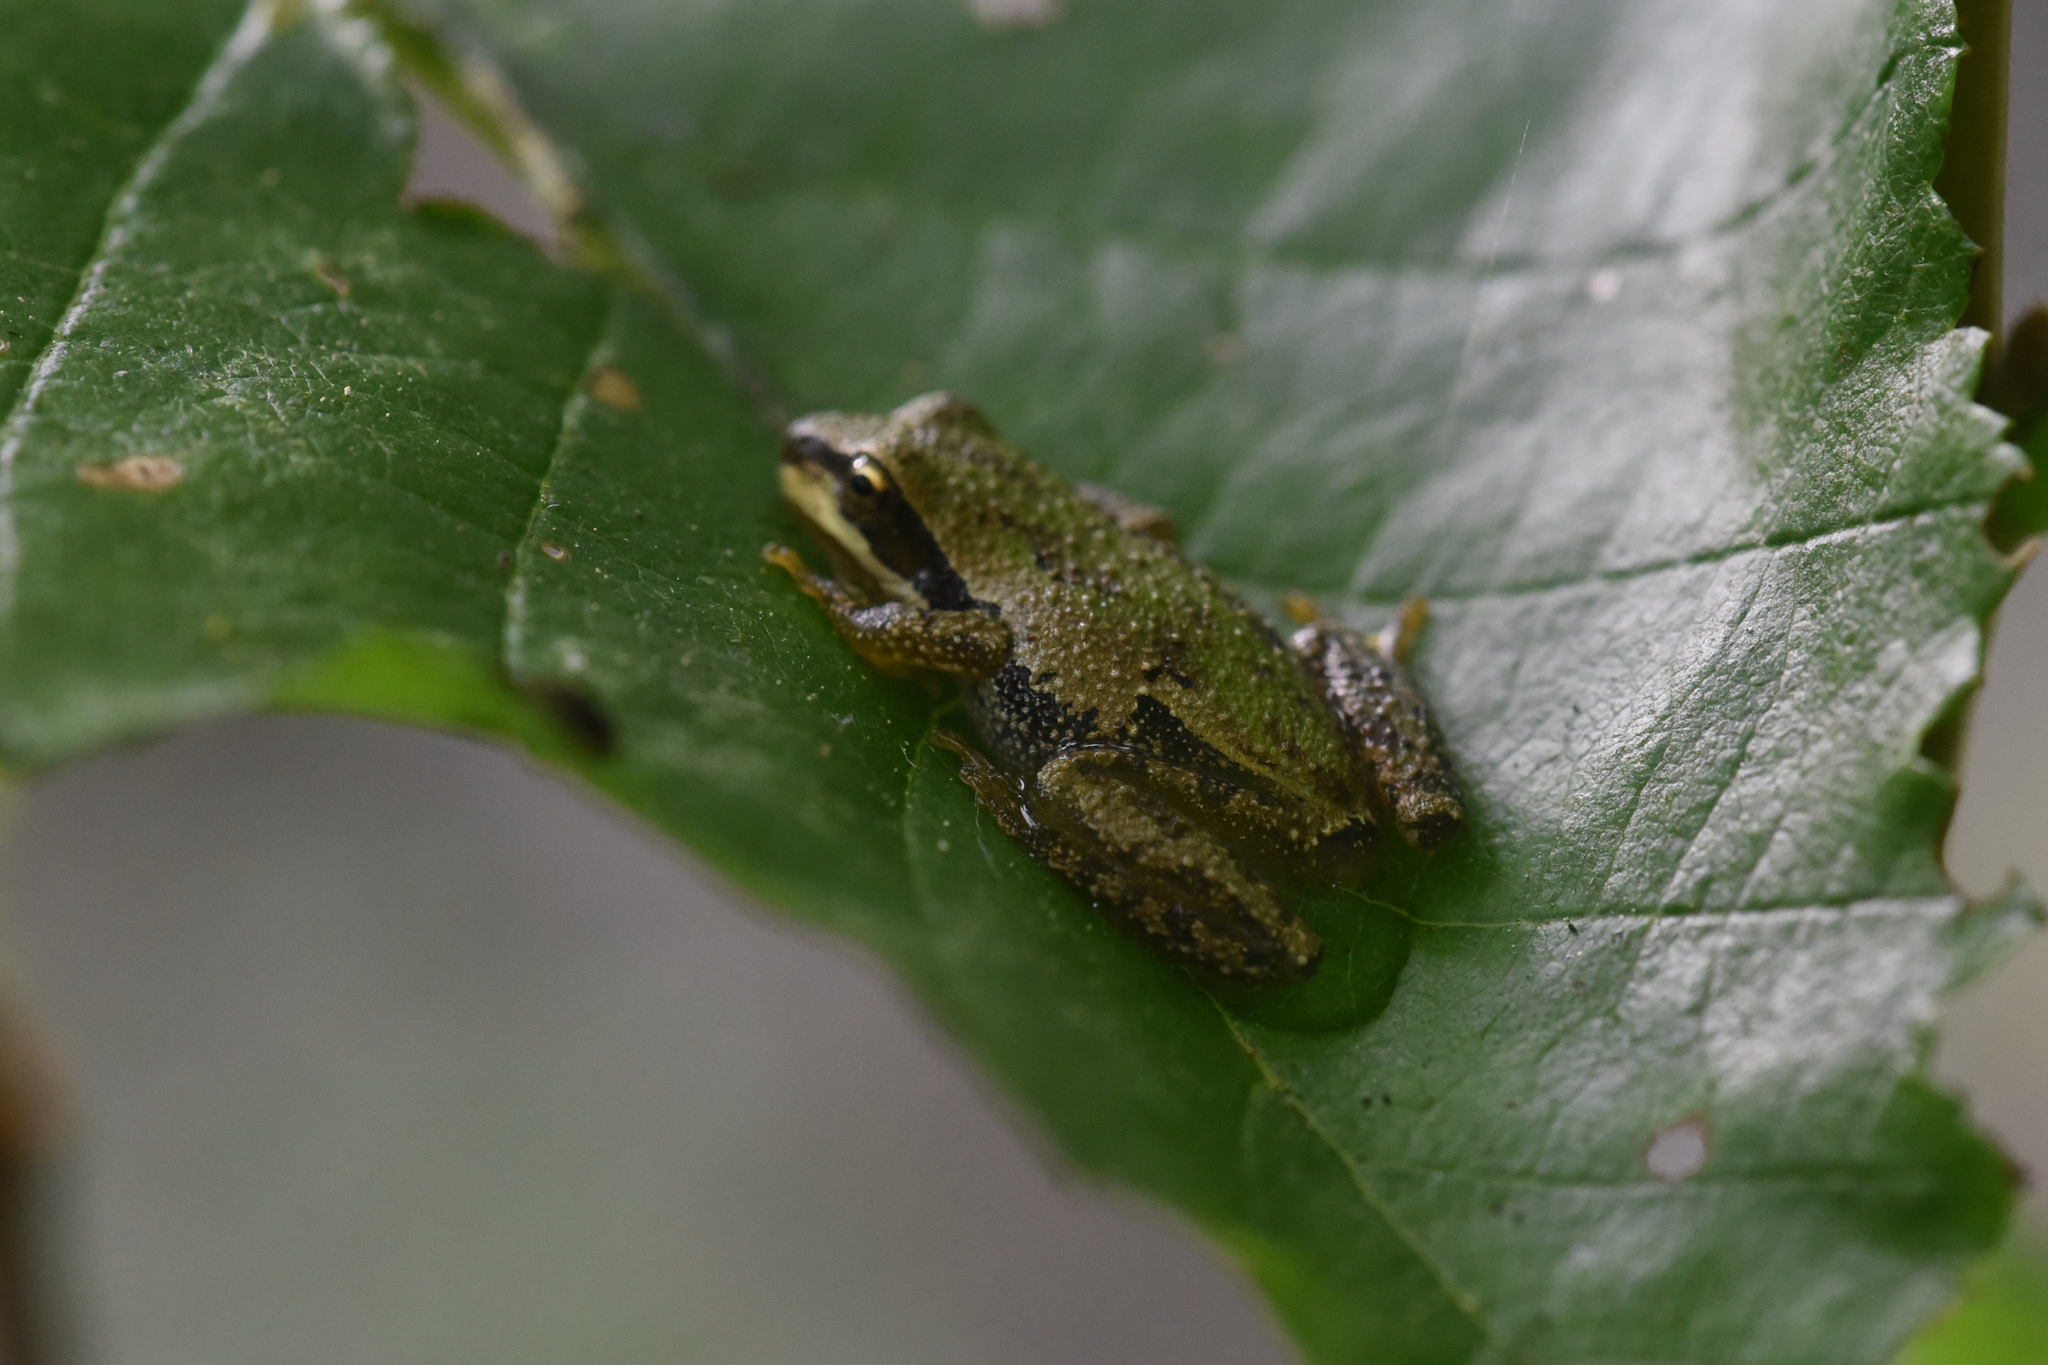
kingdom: Animalia
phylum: Chordata
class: Amphibia
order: Anura
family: Hylidae
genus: Pseudacris
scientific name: Pseudacris regilla
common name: Pacific chorus frog
